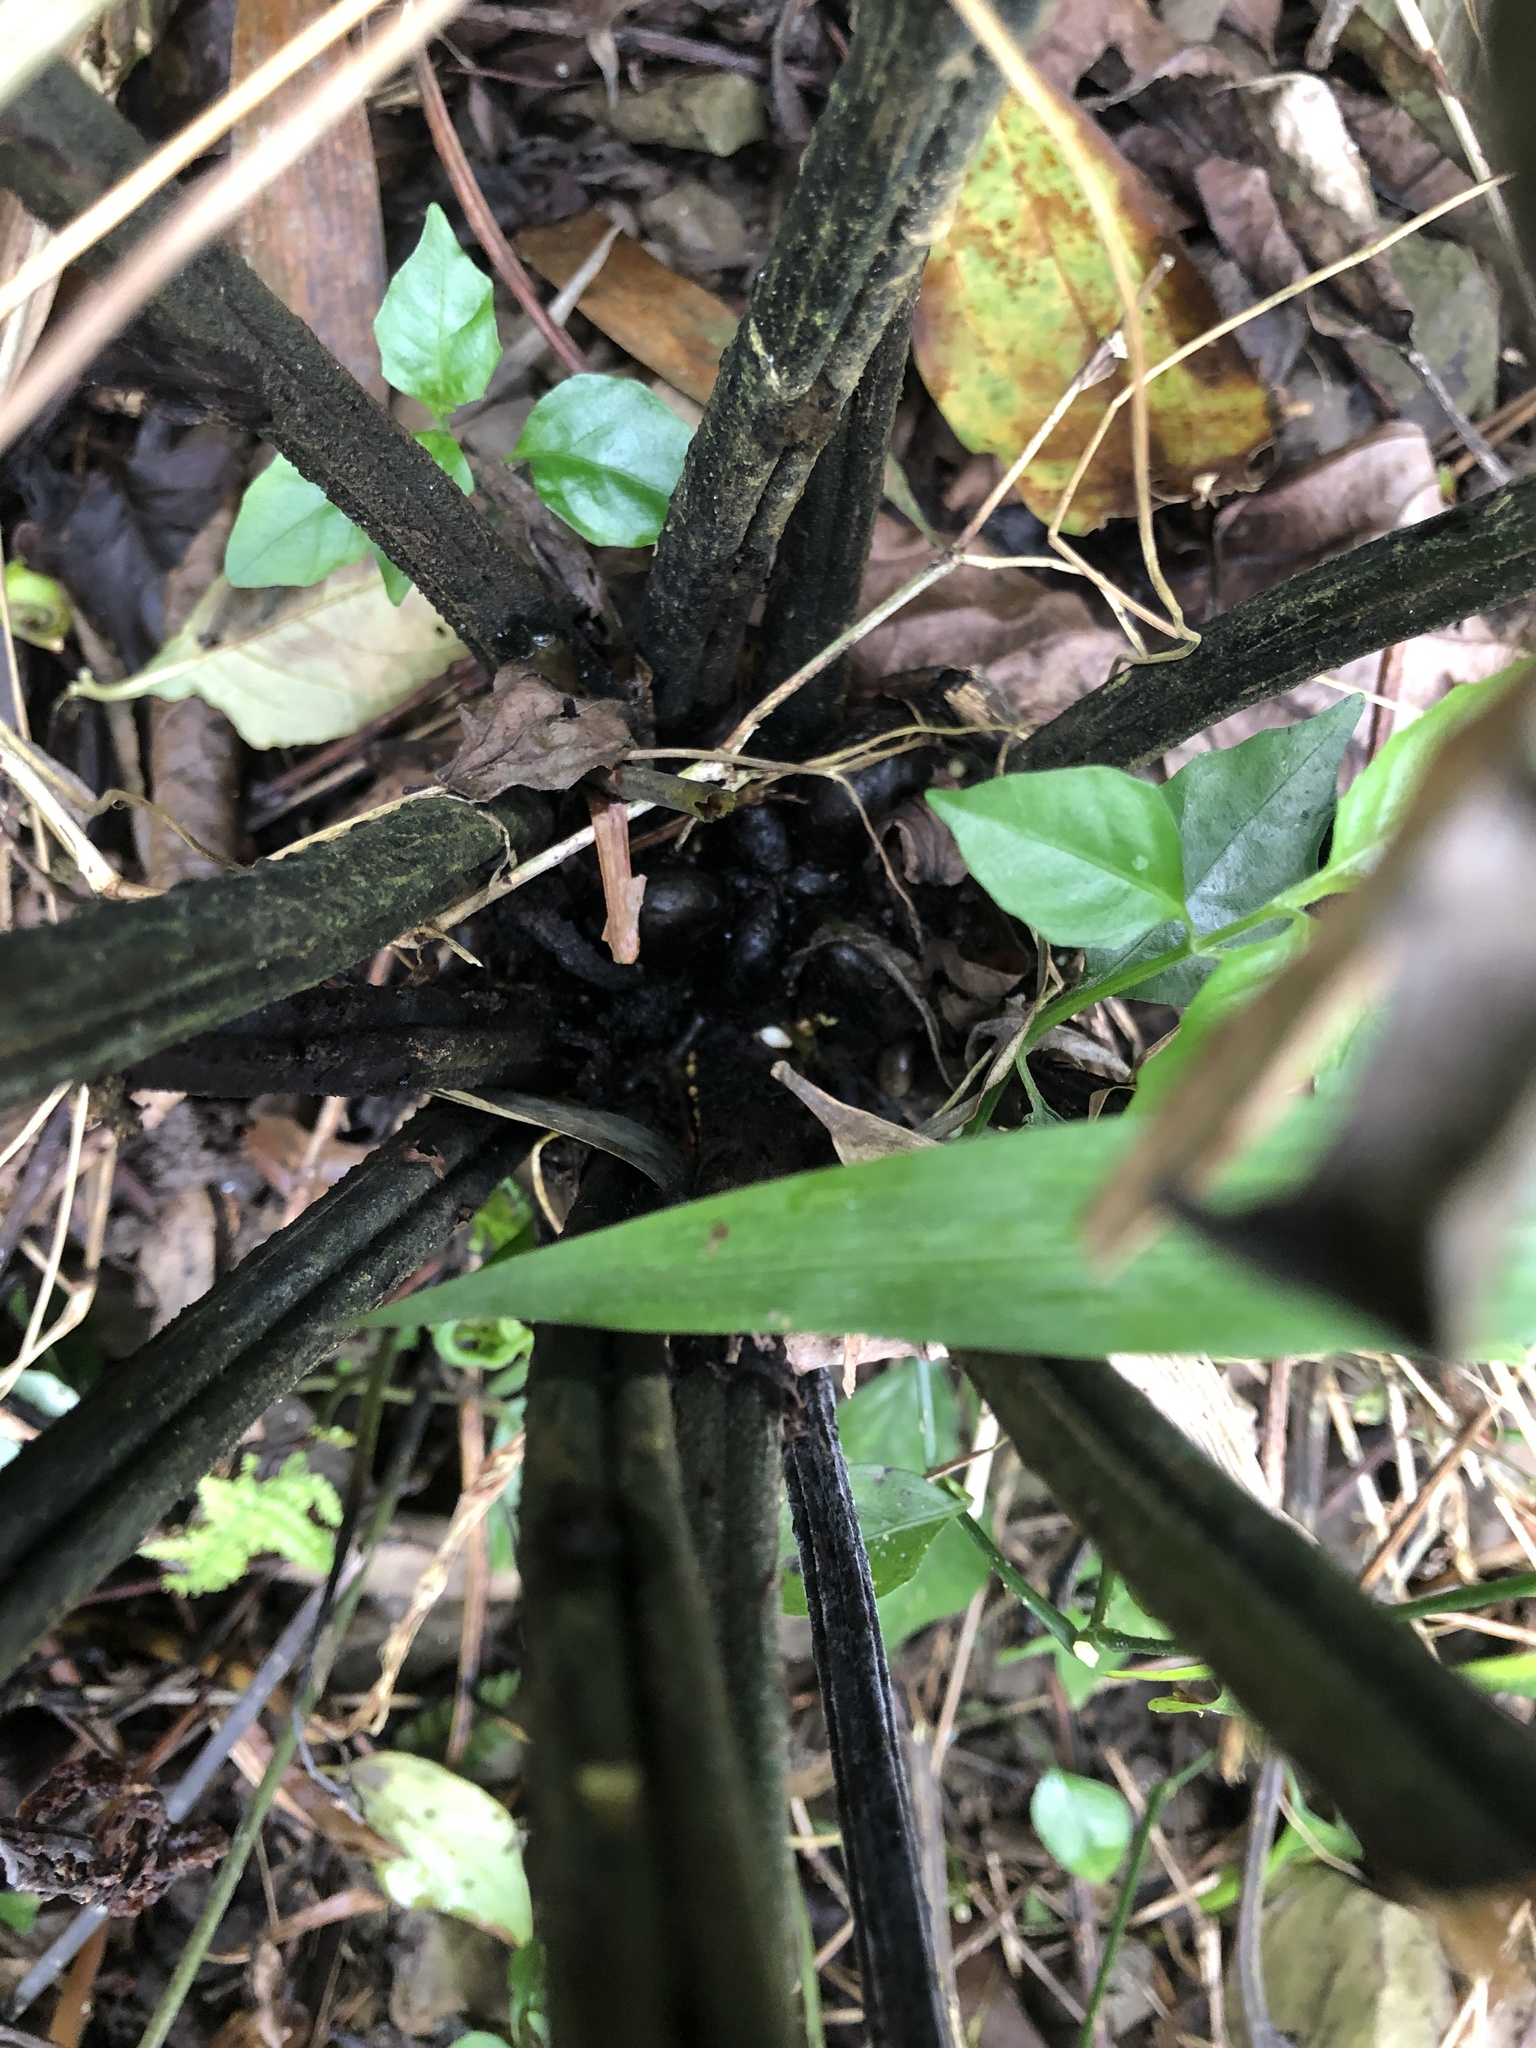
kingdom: Plantae
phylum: Tracheophyta
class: Polypodiopsida
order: Polypodiales
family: Athyriaceae
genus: Diplazium
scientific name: Diplazium laxifrons
